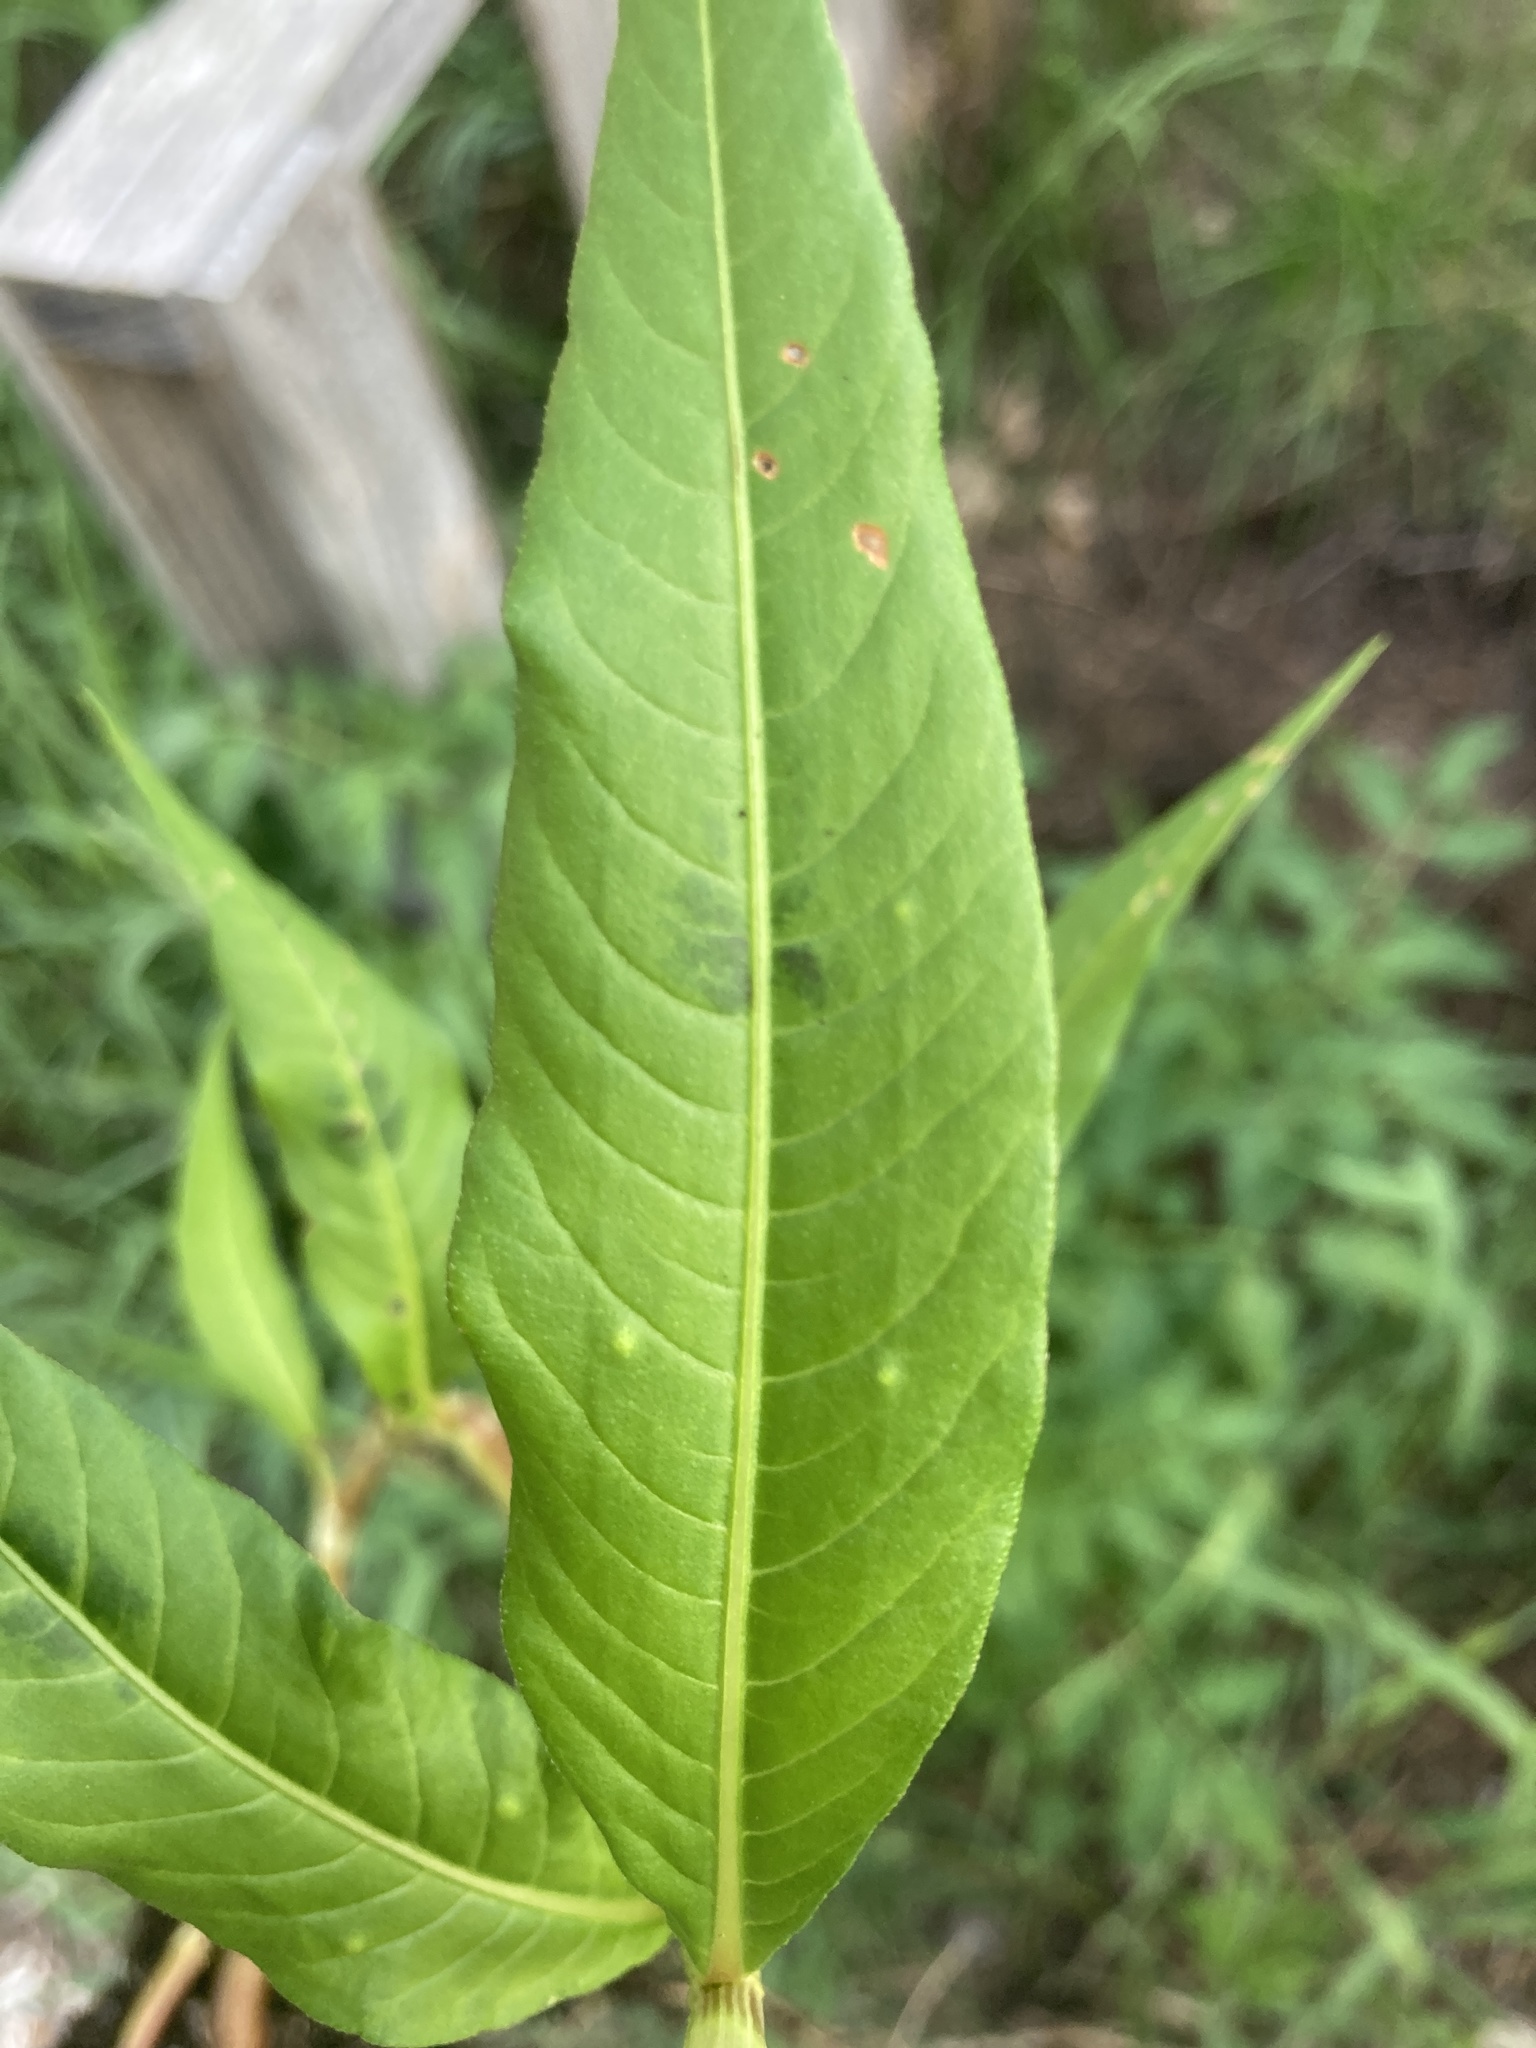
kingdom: Plantae
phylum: Tracheophyta
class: Magnoliopsida
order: Caryophyllales
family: Polygonaceae
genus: Persicaria
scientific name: Persicaria lapathifolia
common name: Curlytop knotweed
